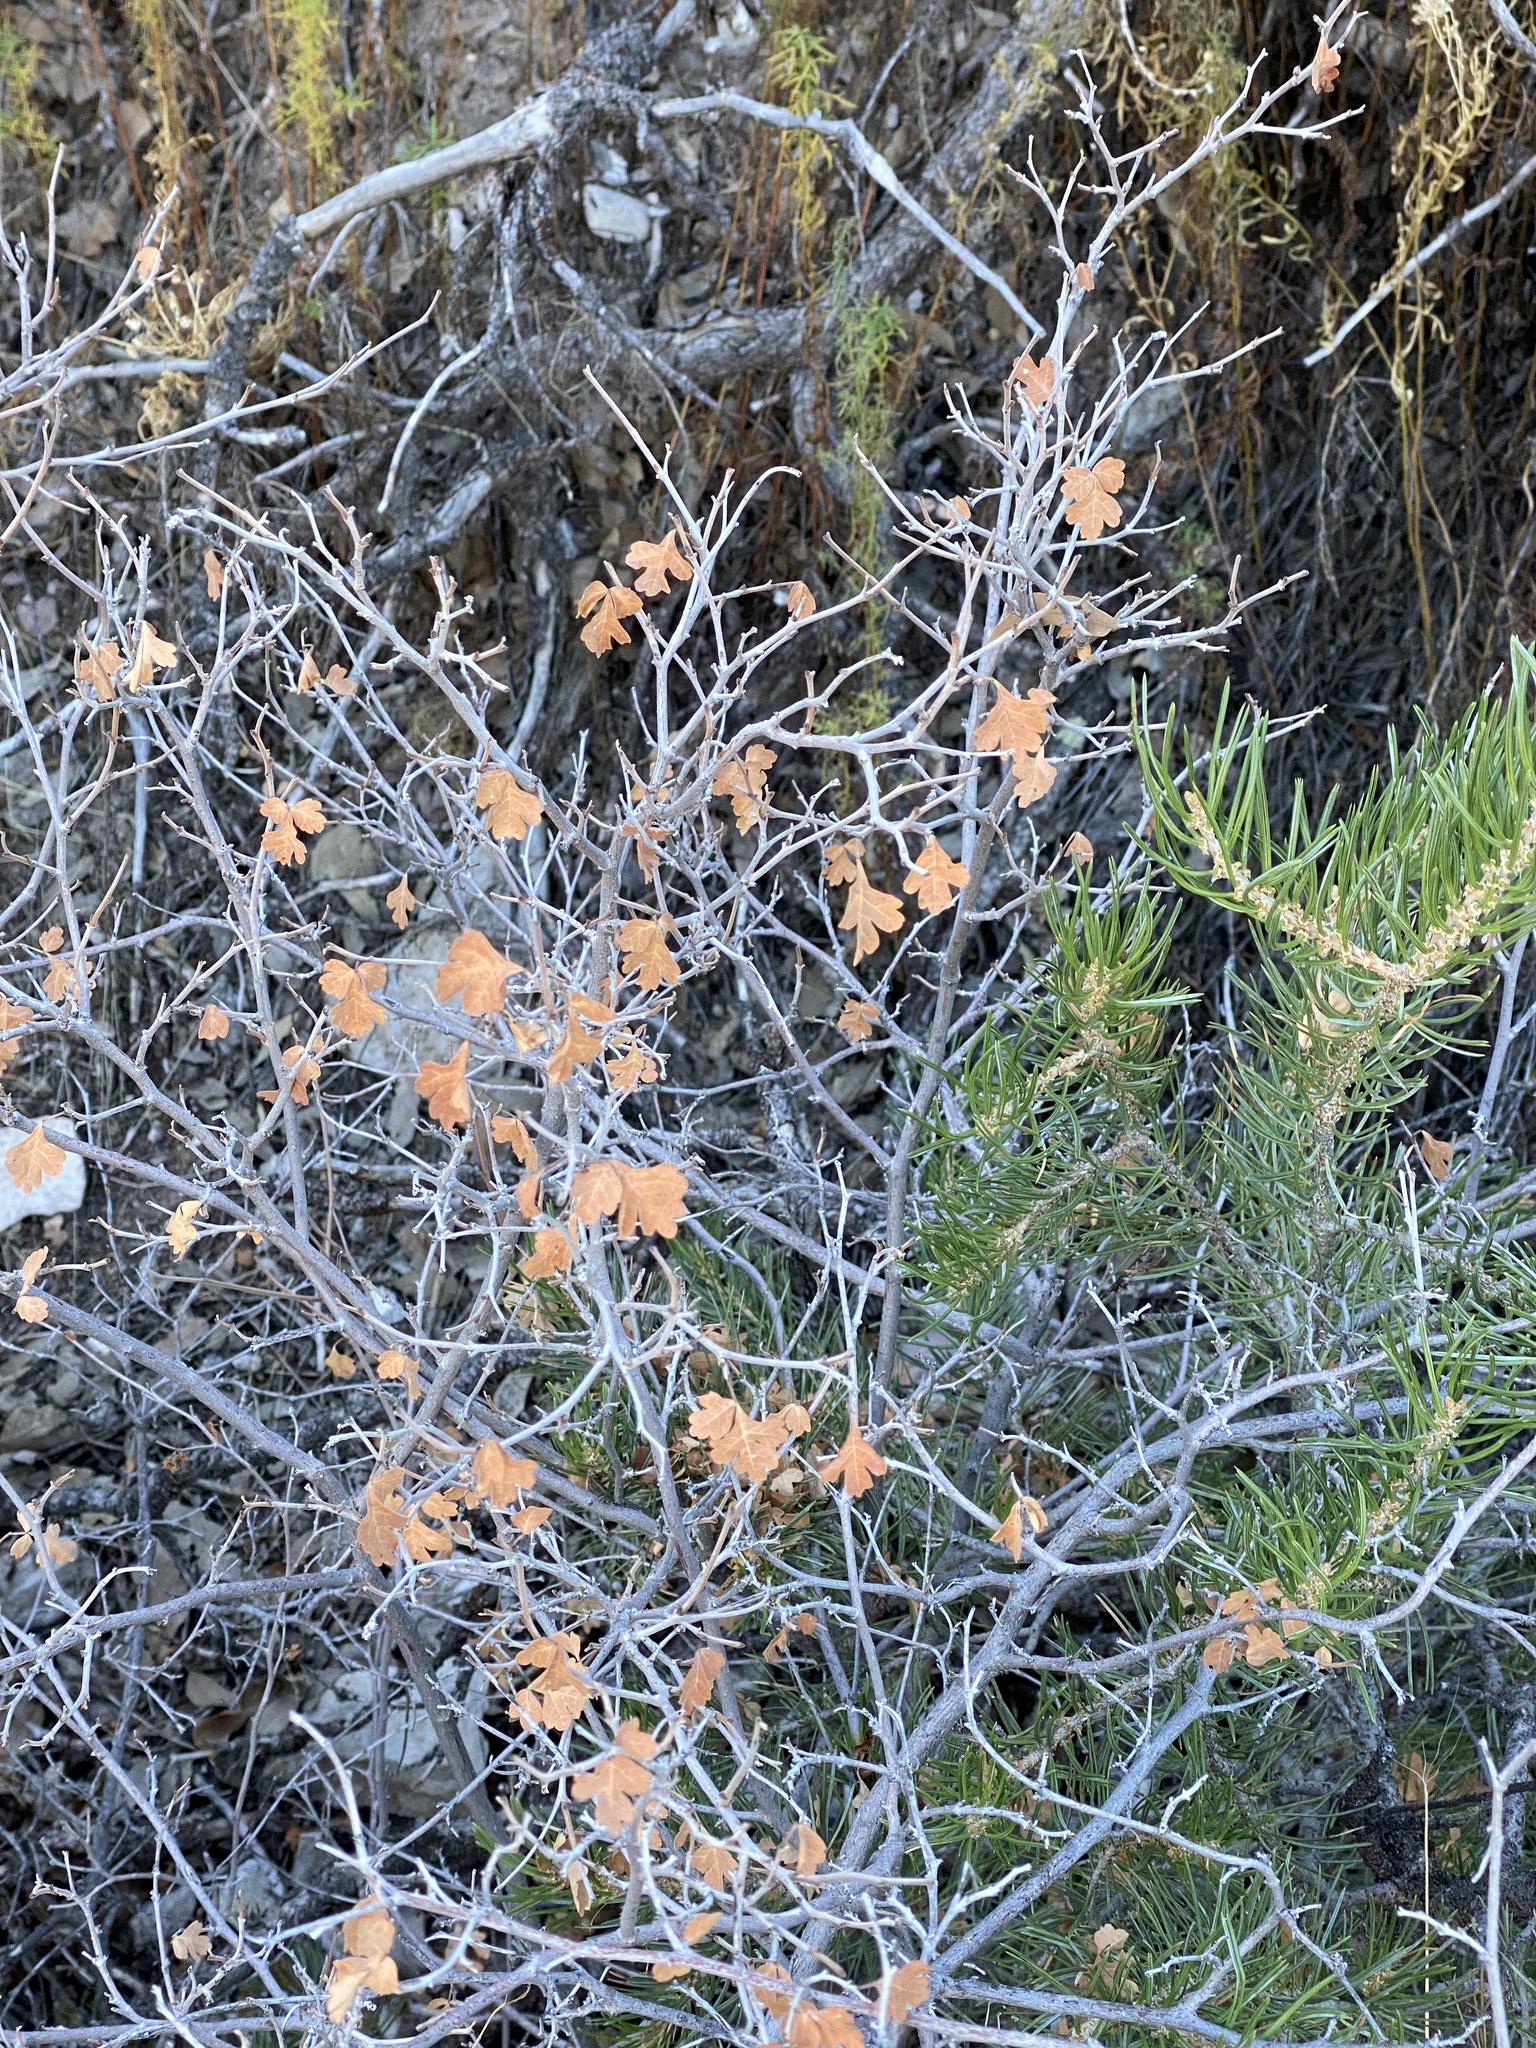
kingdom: Plantae
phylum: Tracheophyta
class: Magnoliopsida
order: Sapindales
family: Anacardiaceae
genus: Rhus
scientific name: Rhus aromatica
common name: Aromatic sumac
